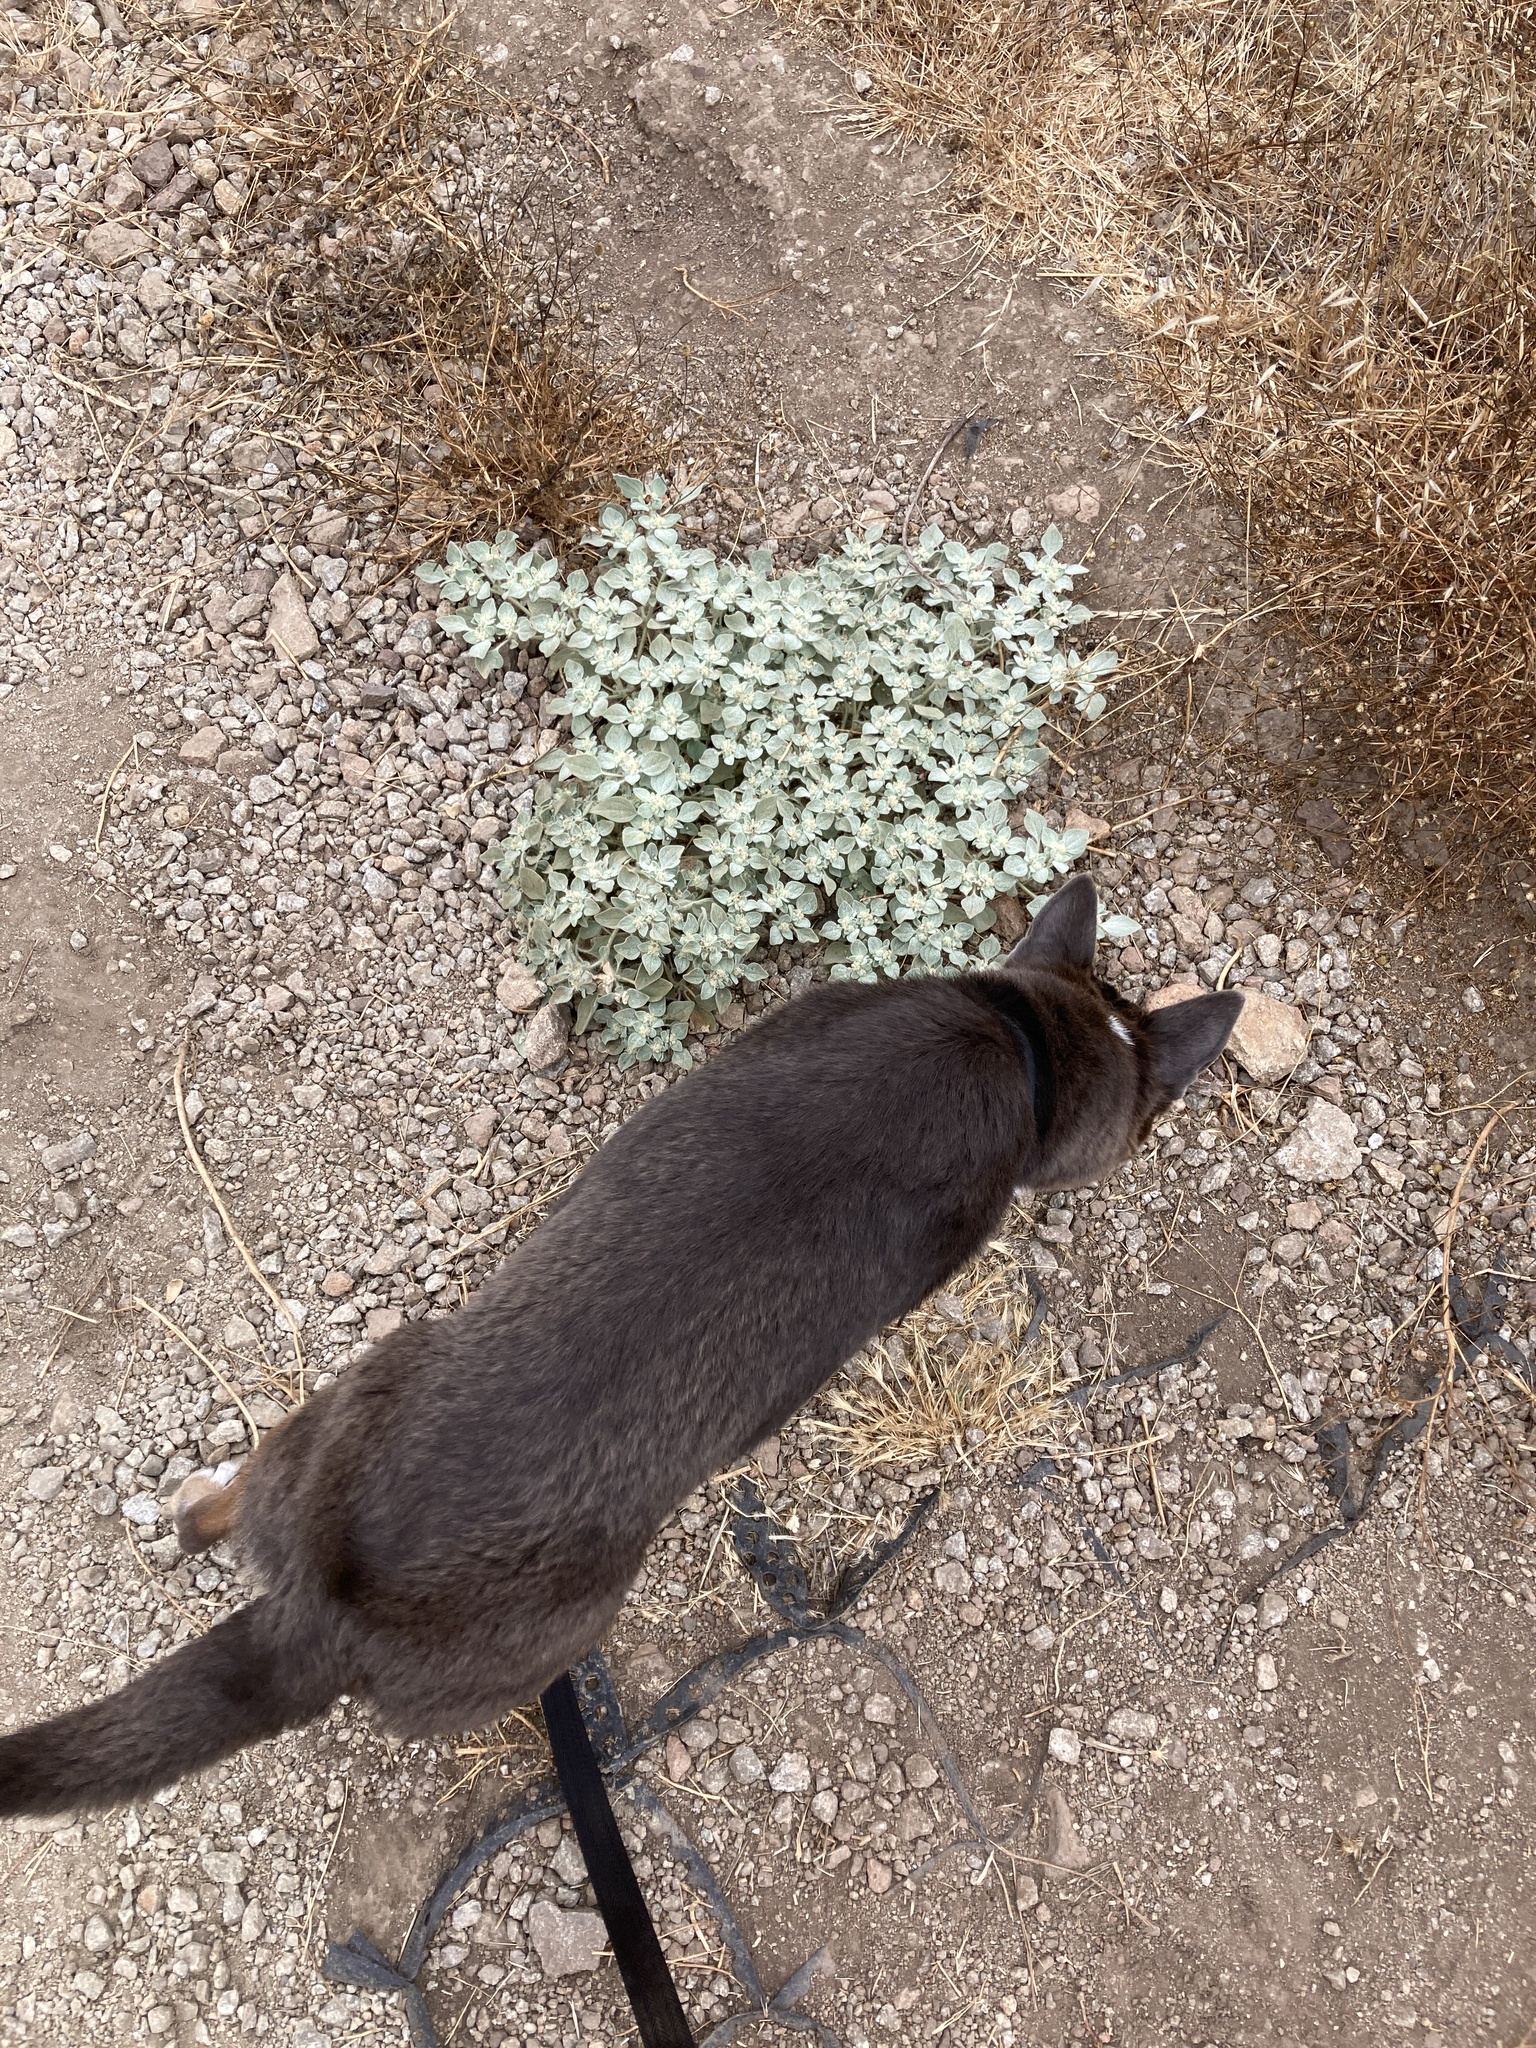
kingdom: Plantae
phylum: Tracheophyta
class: Magnoliopsida
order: Malpighiales
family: Euphorbiaceae
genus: Croton
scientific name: Croton setiger
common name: Dove weed
